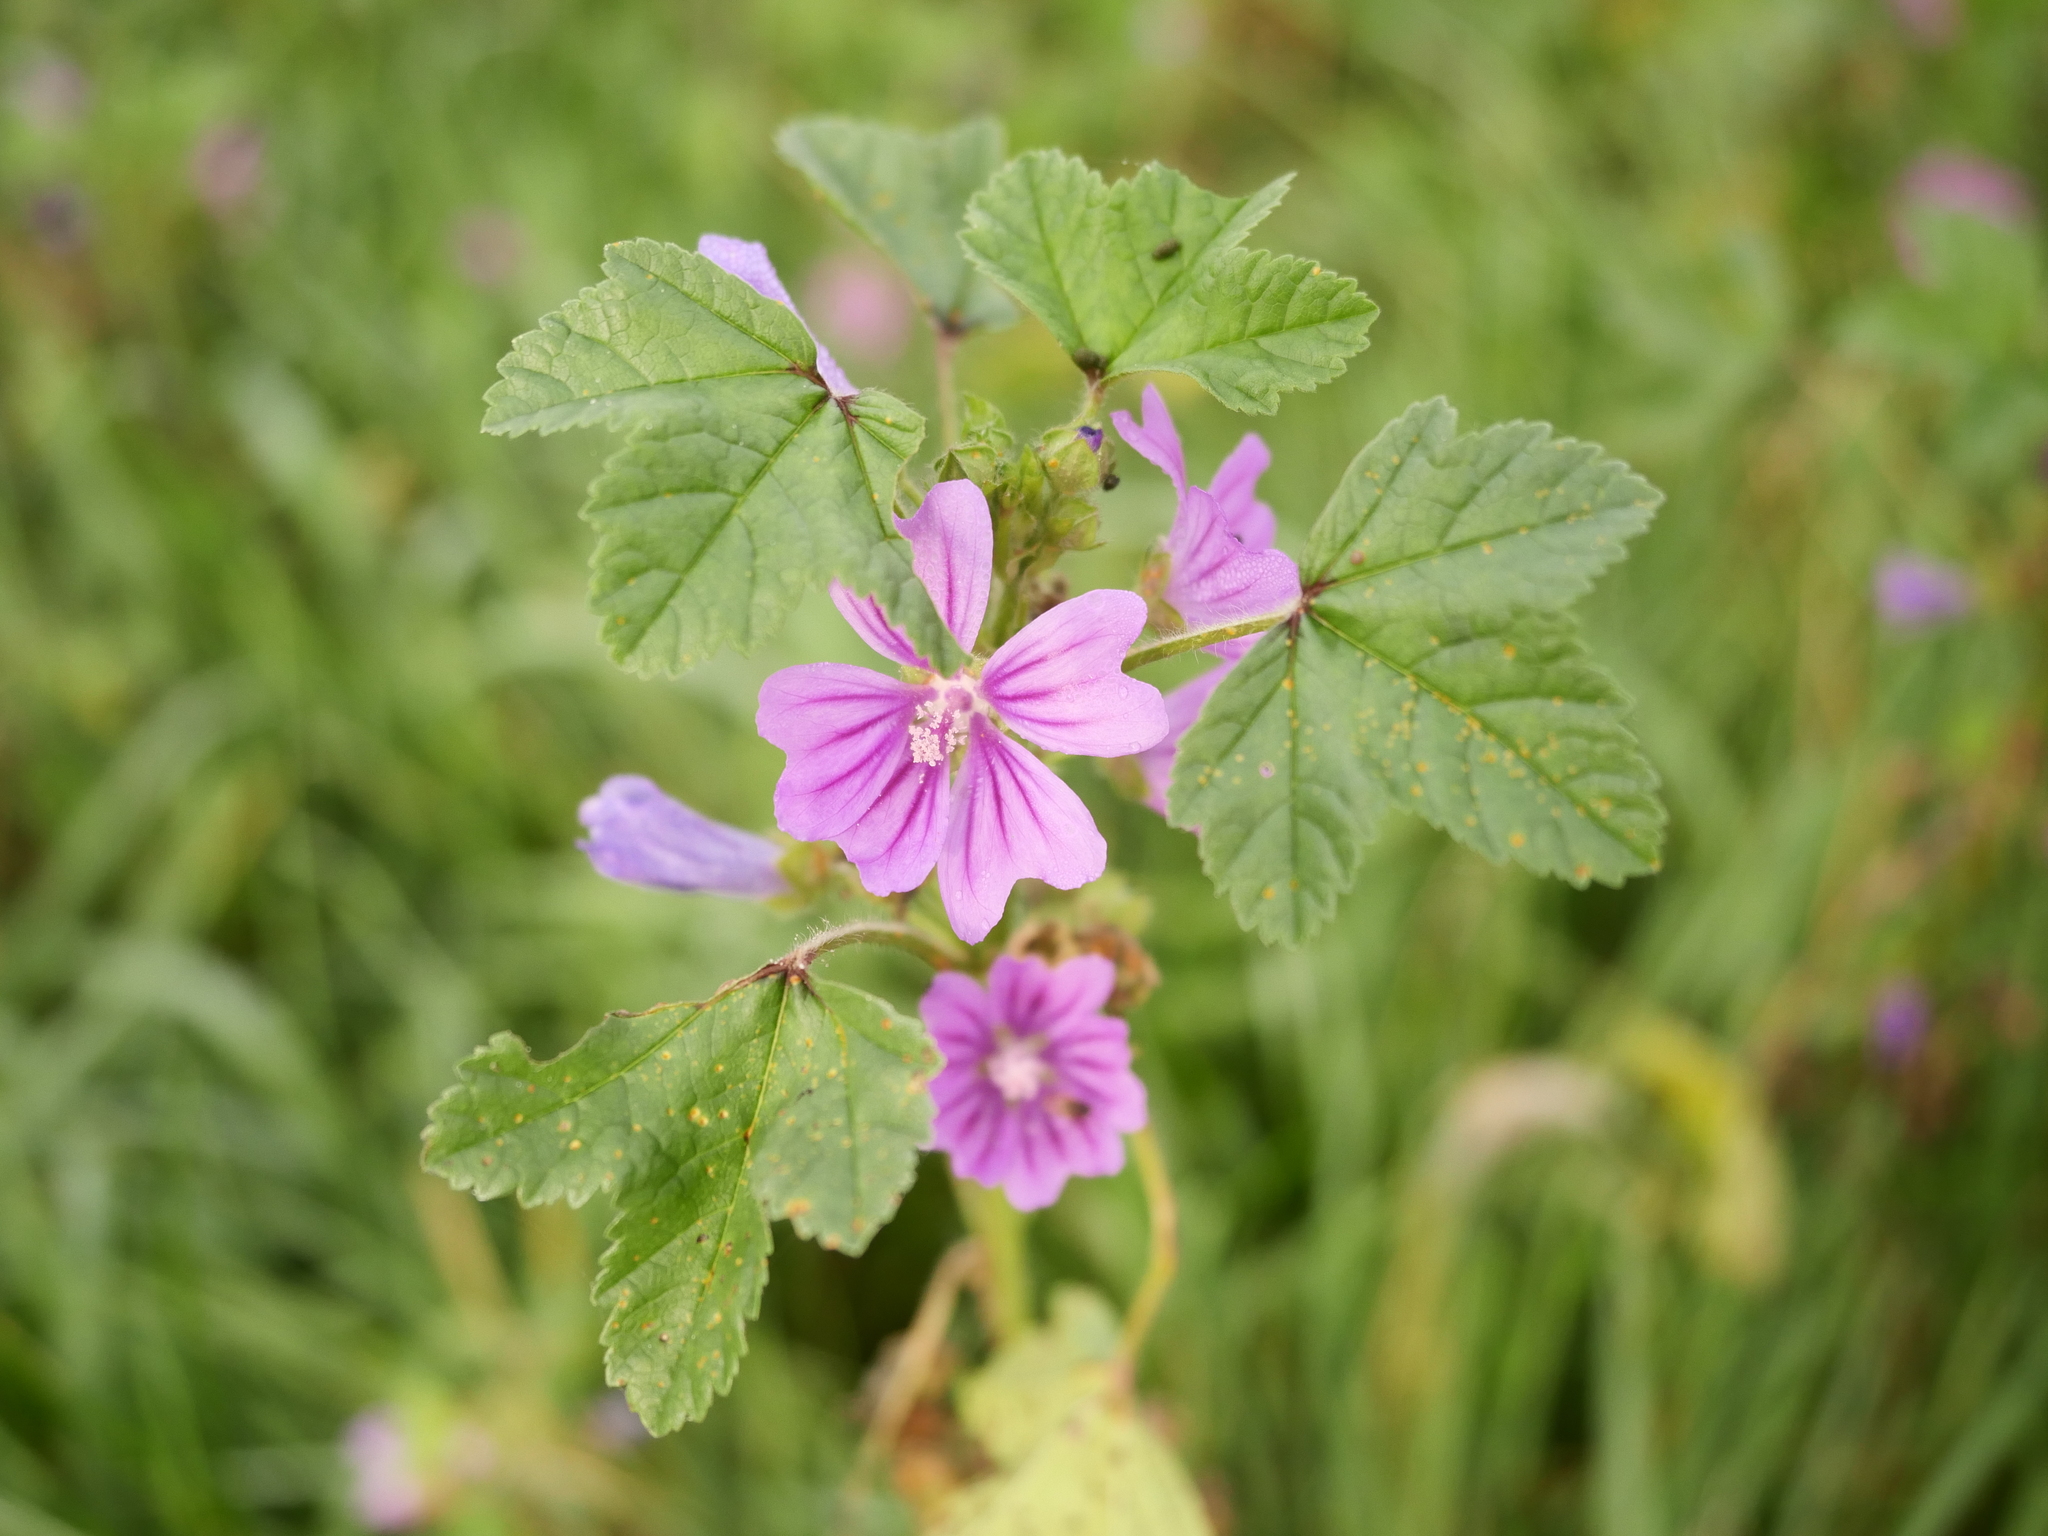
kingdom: Plantae
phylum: Tracheophyta
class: Magnoliopsida
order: Malvales
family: Malvaceae
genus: Malva
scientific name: Malva sylvestris
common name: Common mallow
